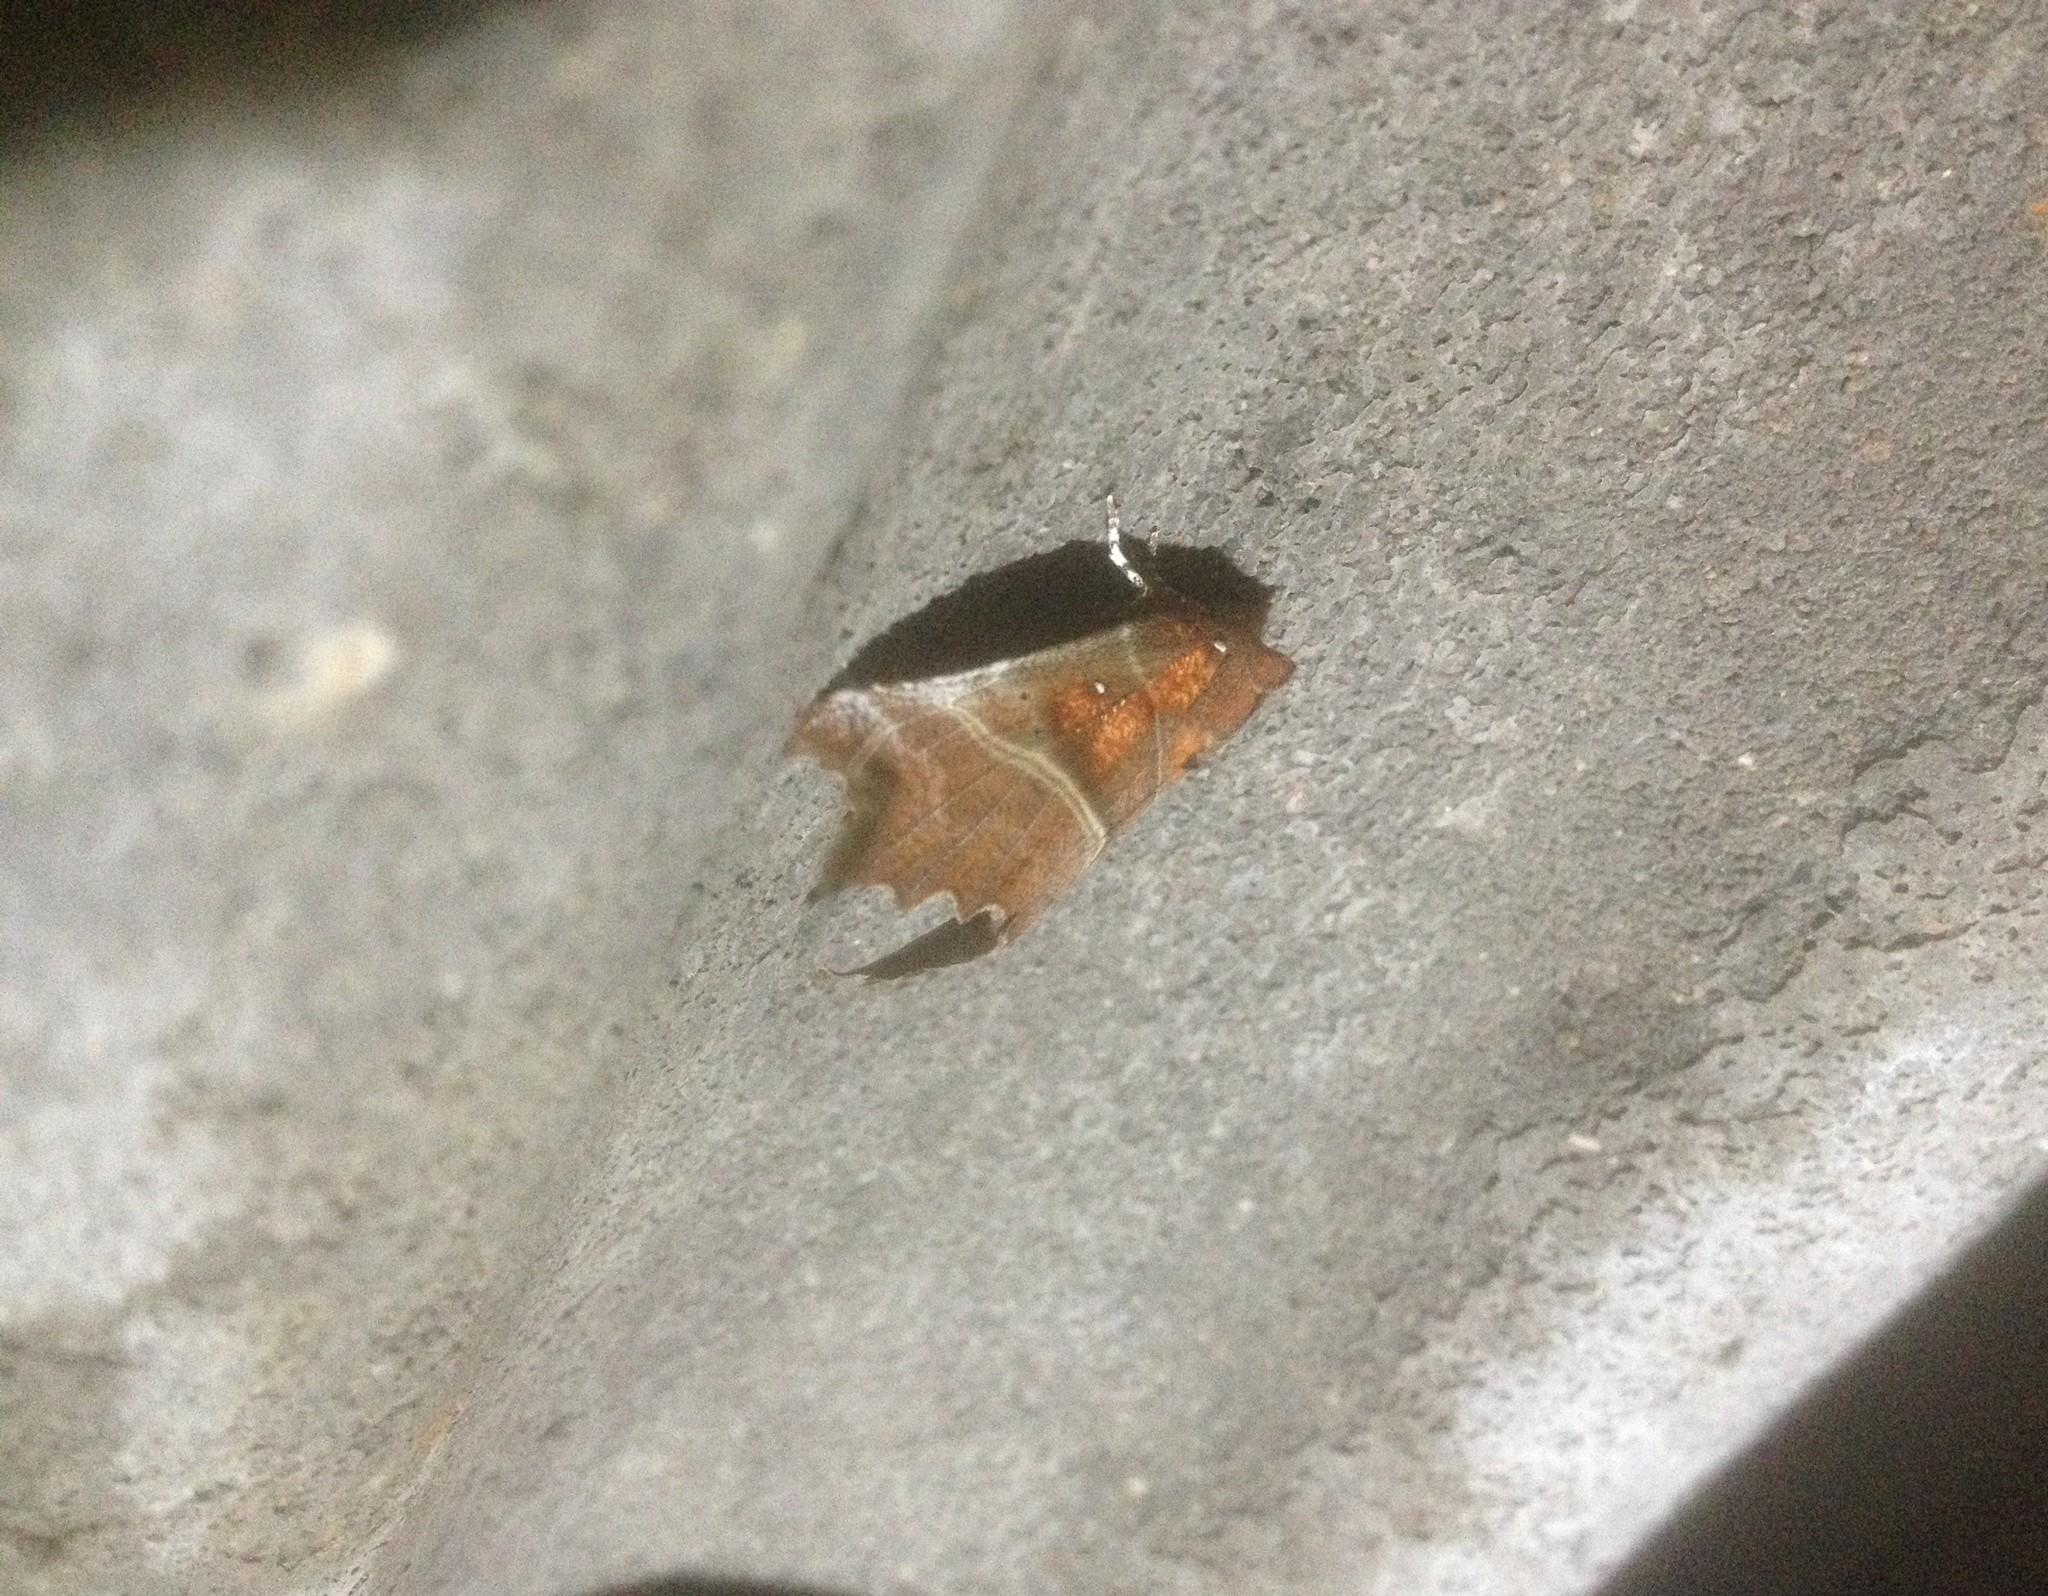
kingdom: Animalia
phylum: Arthropoda
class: Insecta
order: Lepidoptera
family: Erebidae
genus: Scoliopteryx
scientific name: Scoliopteryx libatrix
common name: Herald
